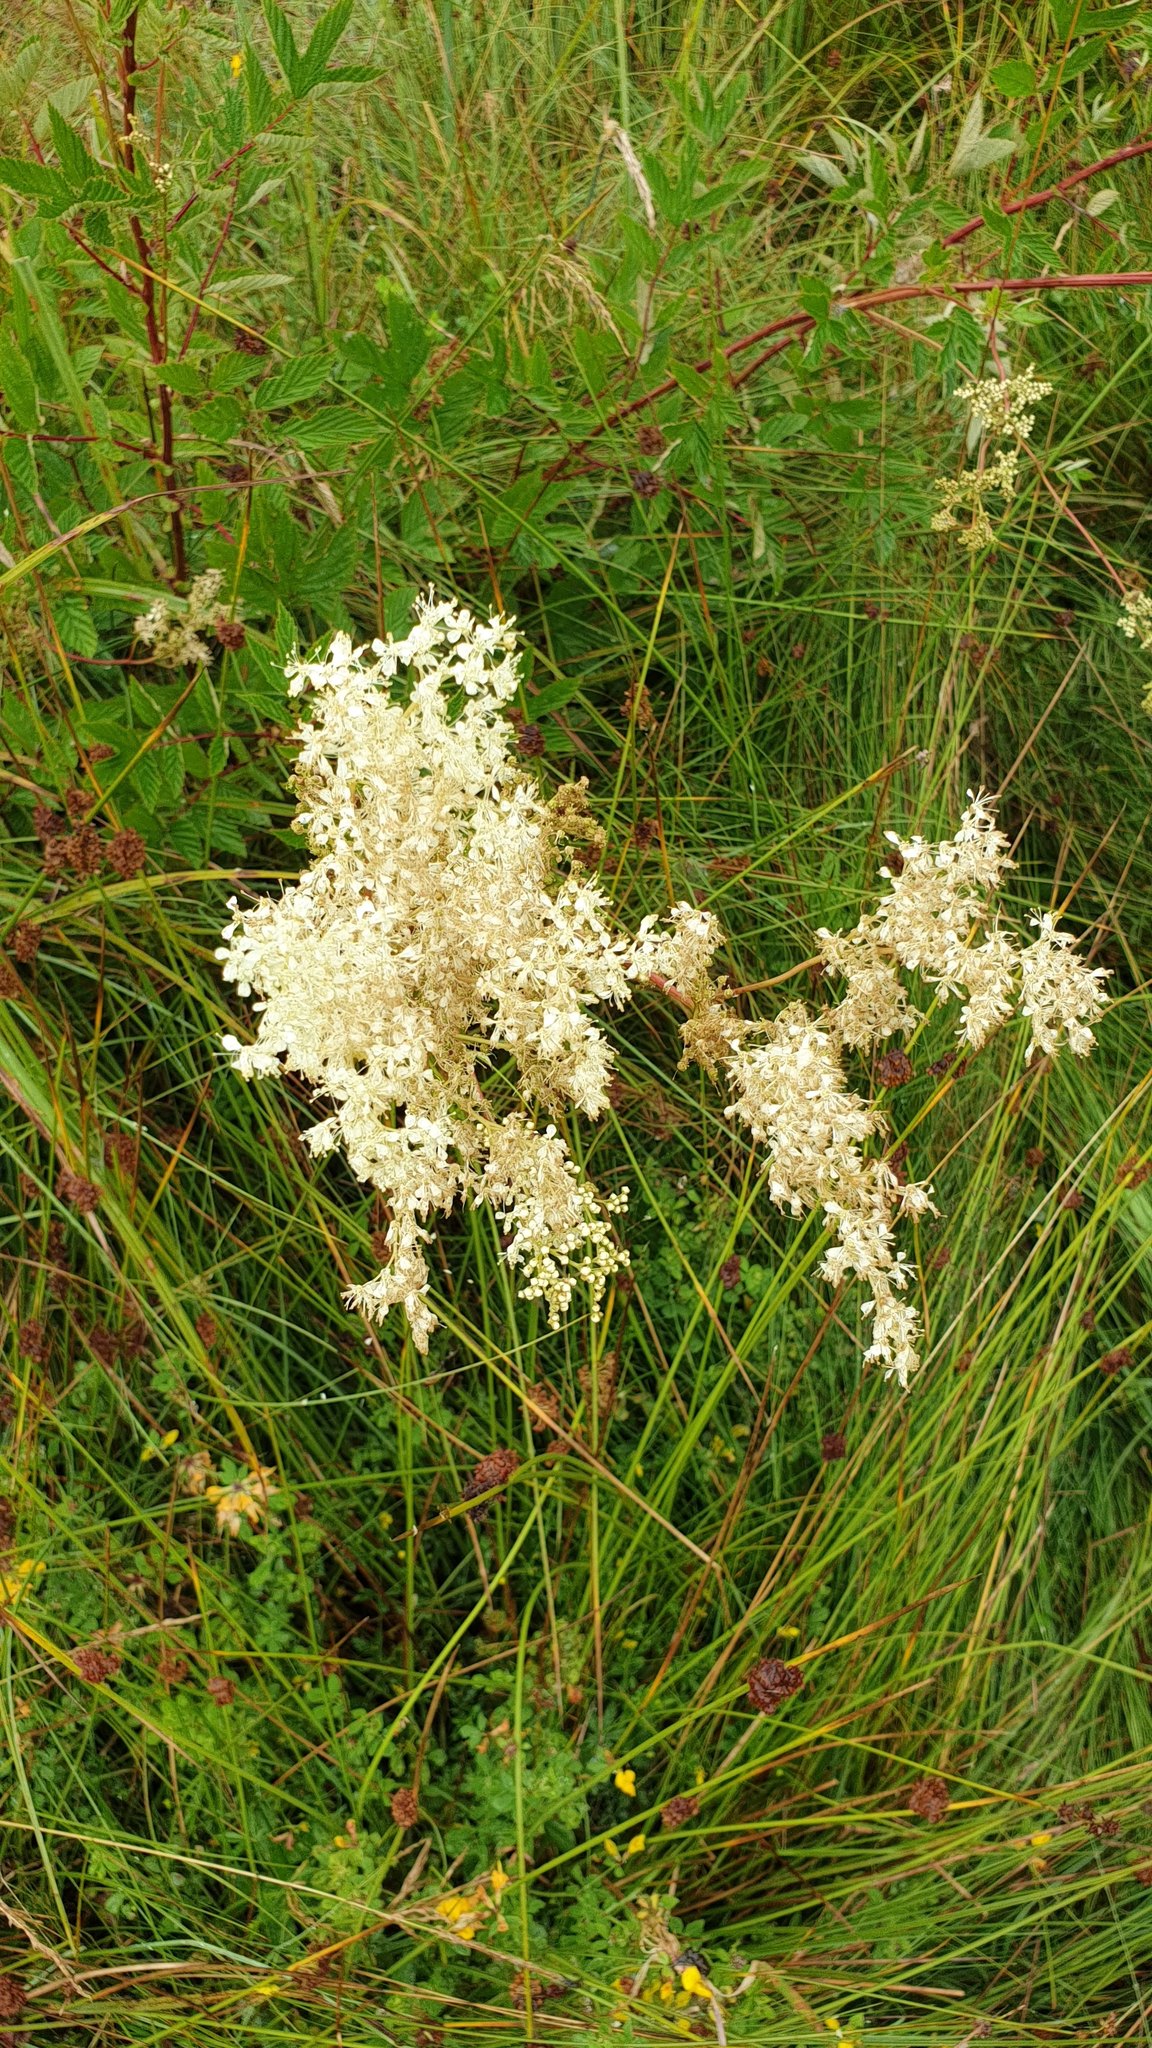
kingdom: Plantae
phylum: Tracheophyta
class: Magnoliopsida
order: Rosales
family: Rosaceae
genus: Filipendula
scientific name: Filipendula ulmaria
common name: Meadowsweet
